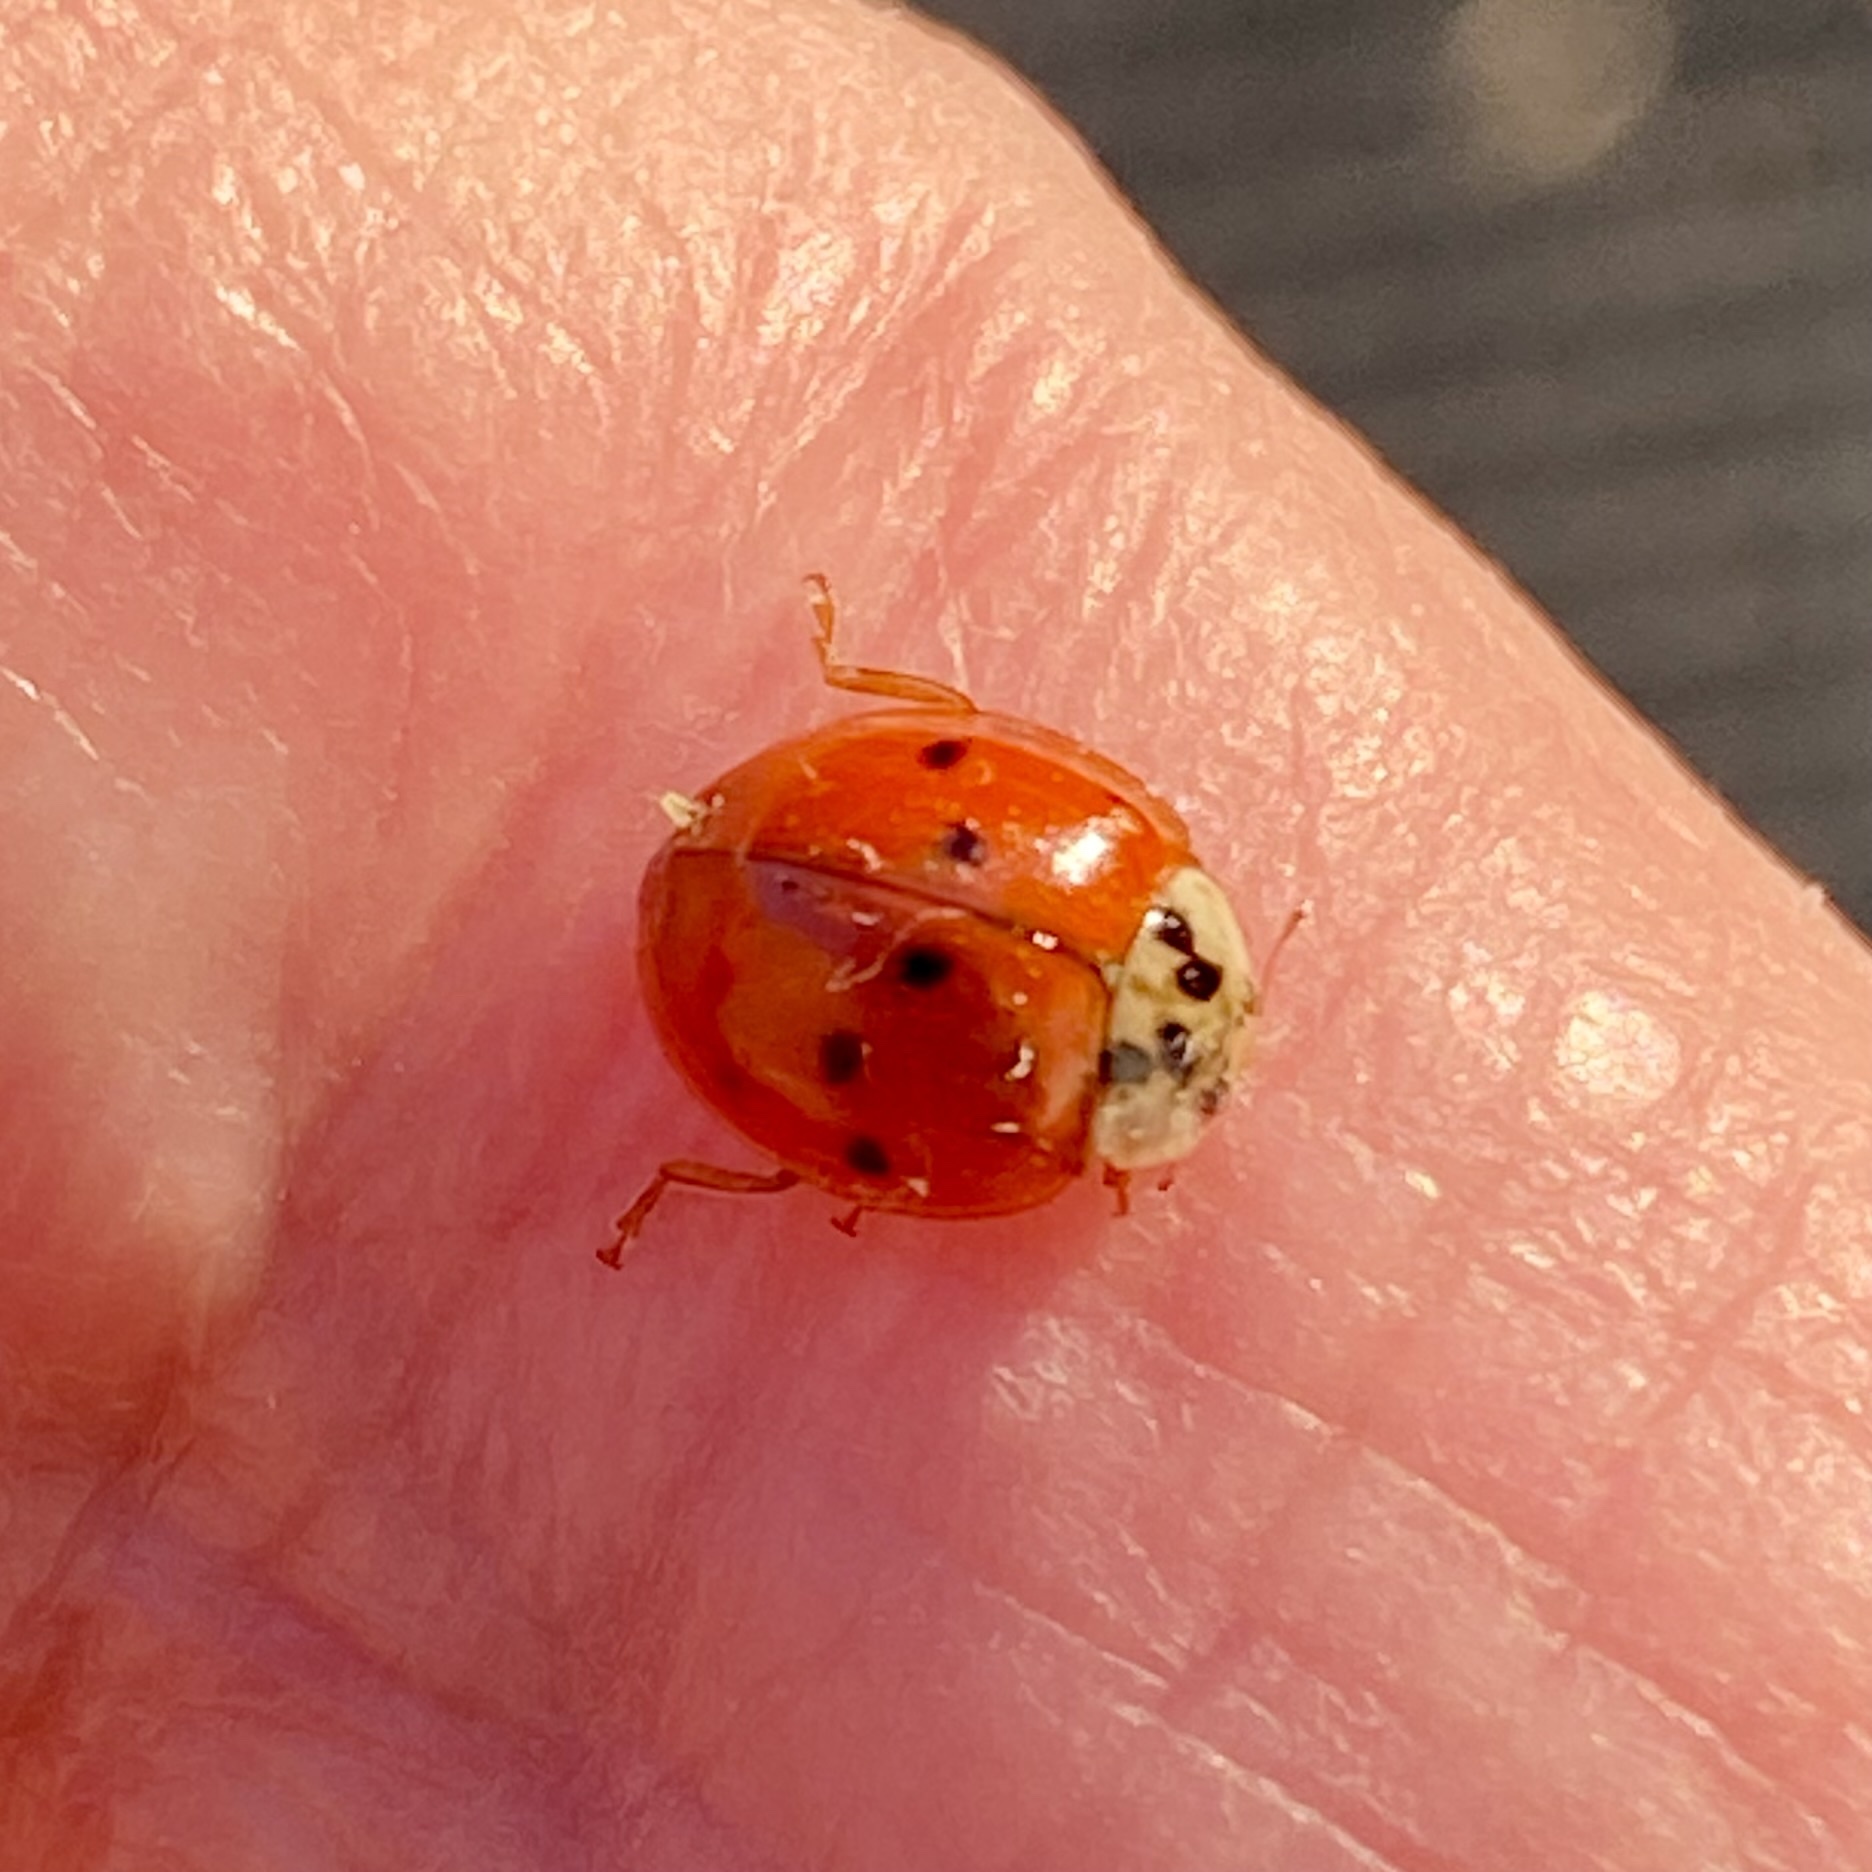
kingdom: Animalia
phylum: Arthropoda
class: Insecta
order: Coleoptera
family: Coccinellidae
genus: Harmonia
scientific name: Harmonia axyridis
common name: Harlequin ladybird
